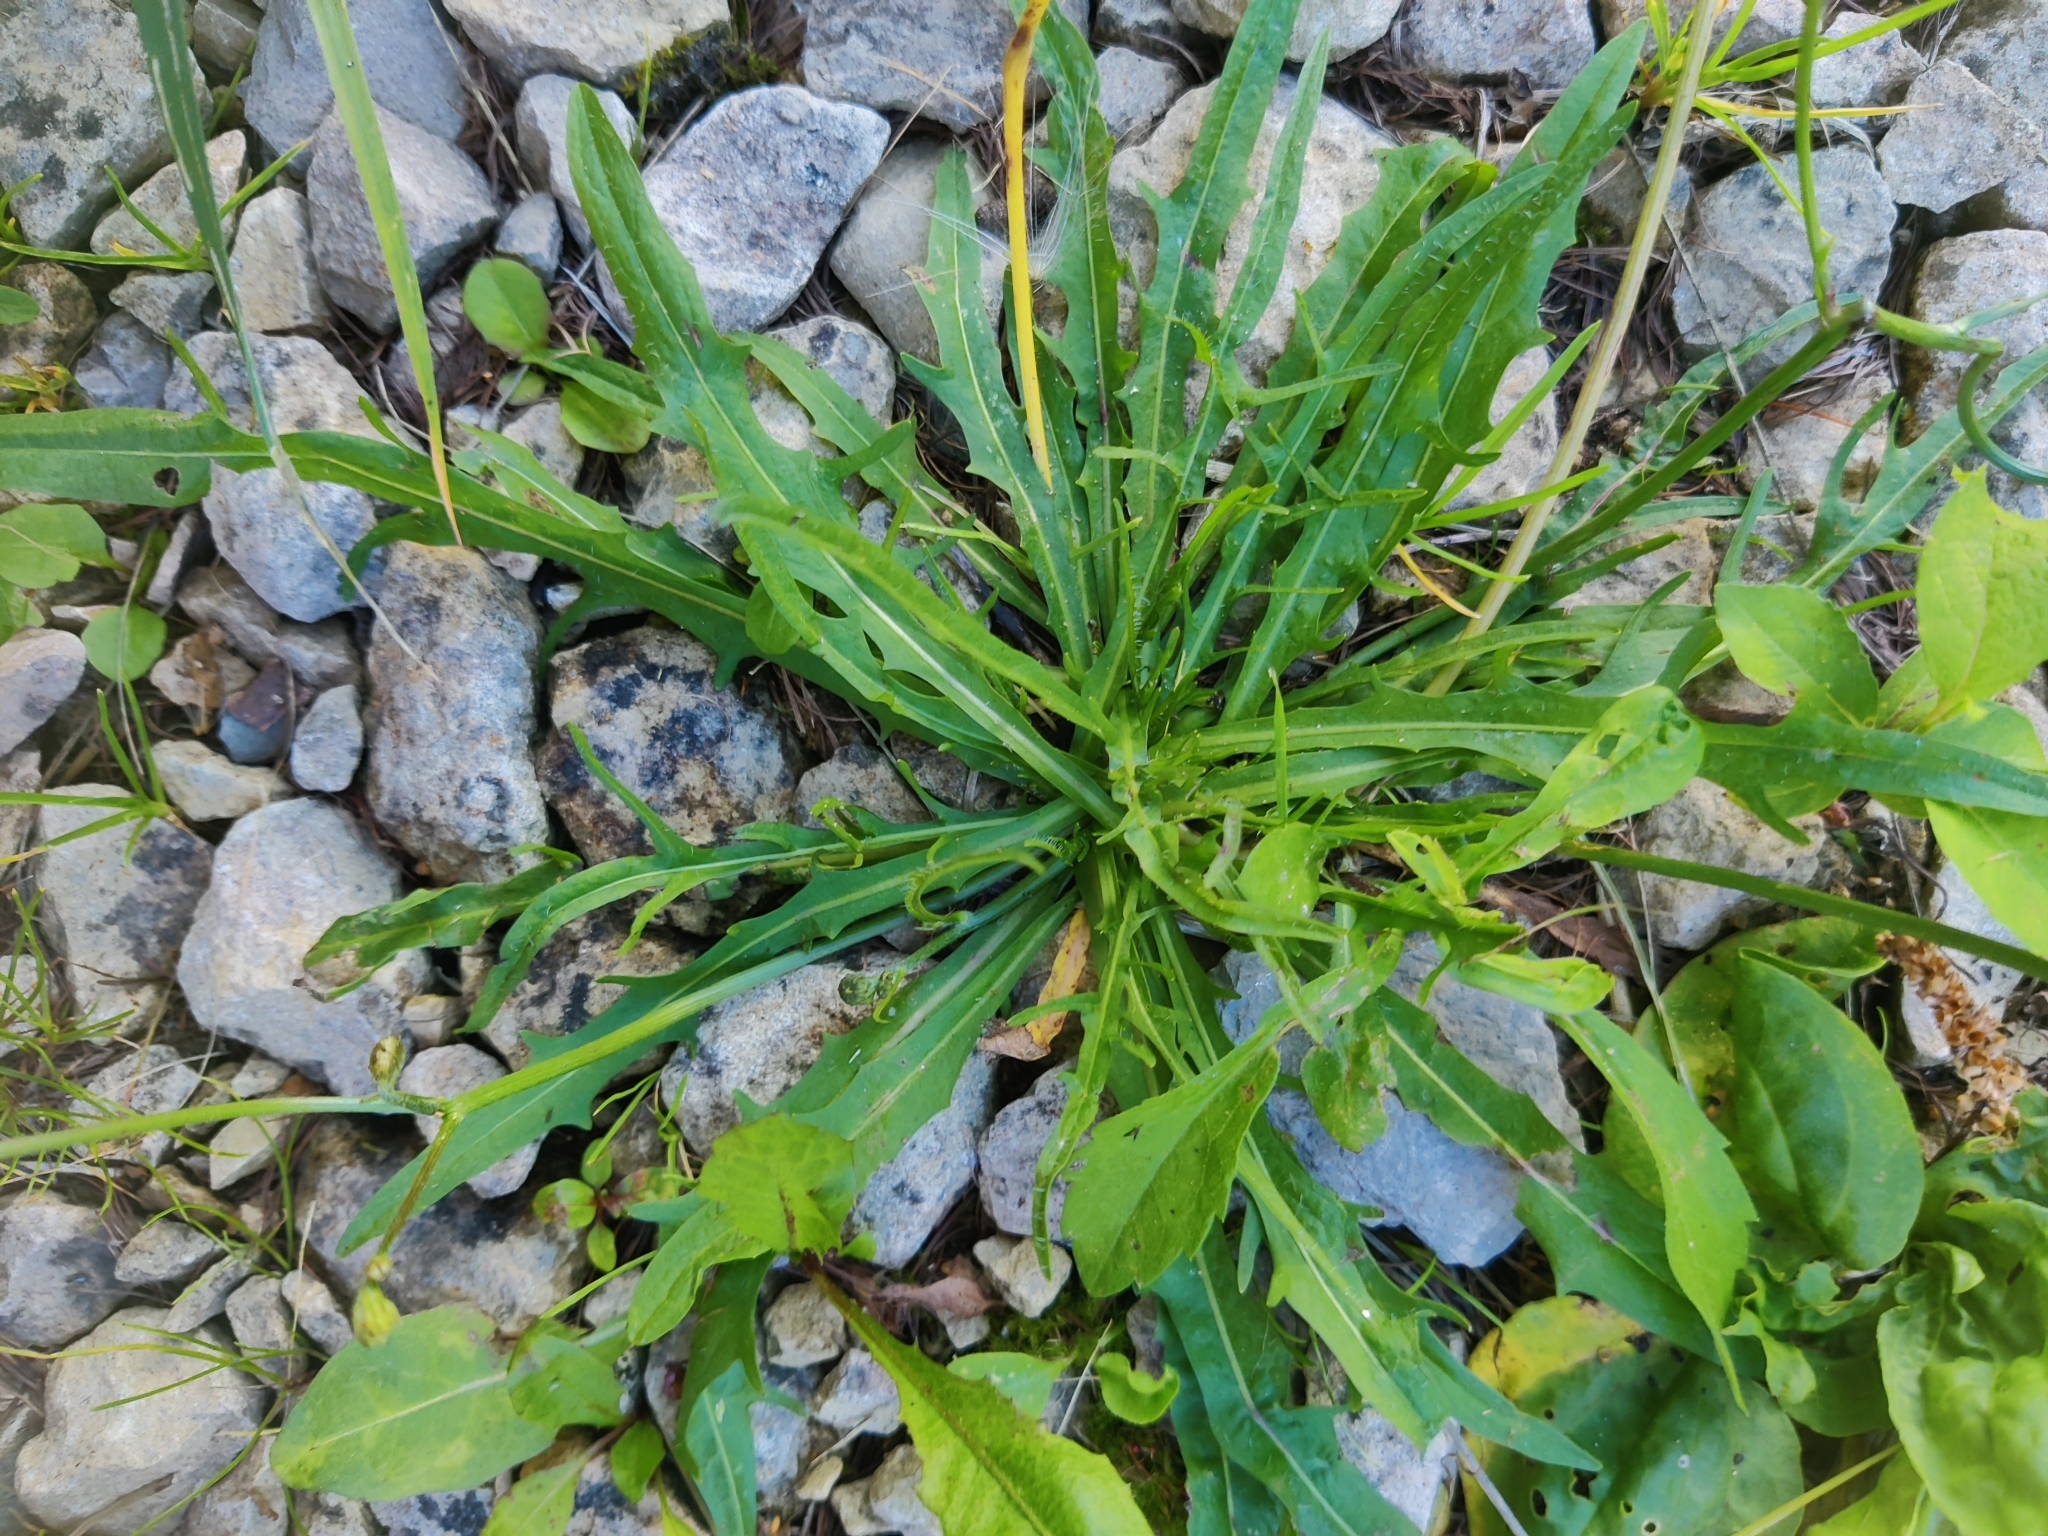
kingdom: Plantae
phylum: Tracheophyta
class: Magnoliopsida
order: Asterales
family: Asteraceae
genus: Scorzoneroides
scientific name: Scorzoneroides autumnalis
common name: Autumn hawkbit
